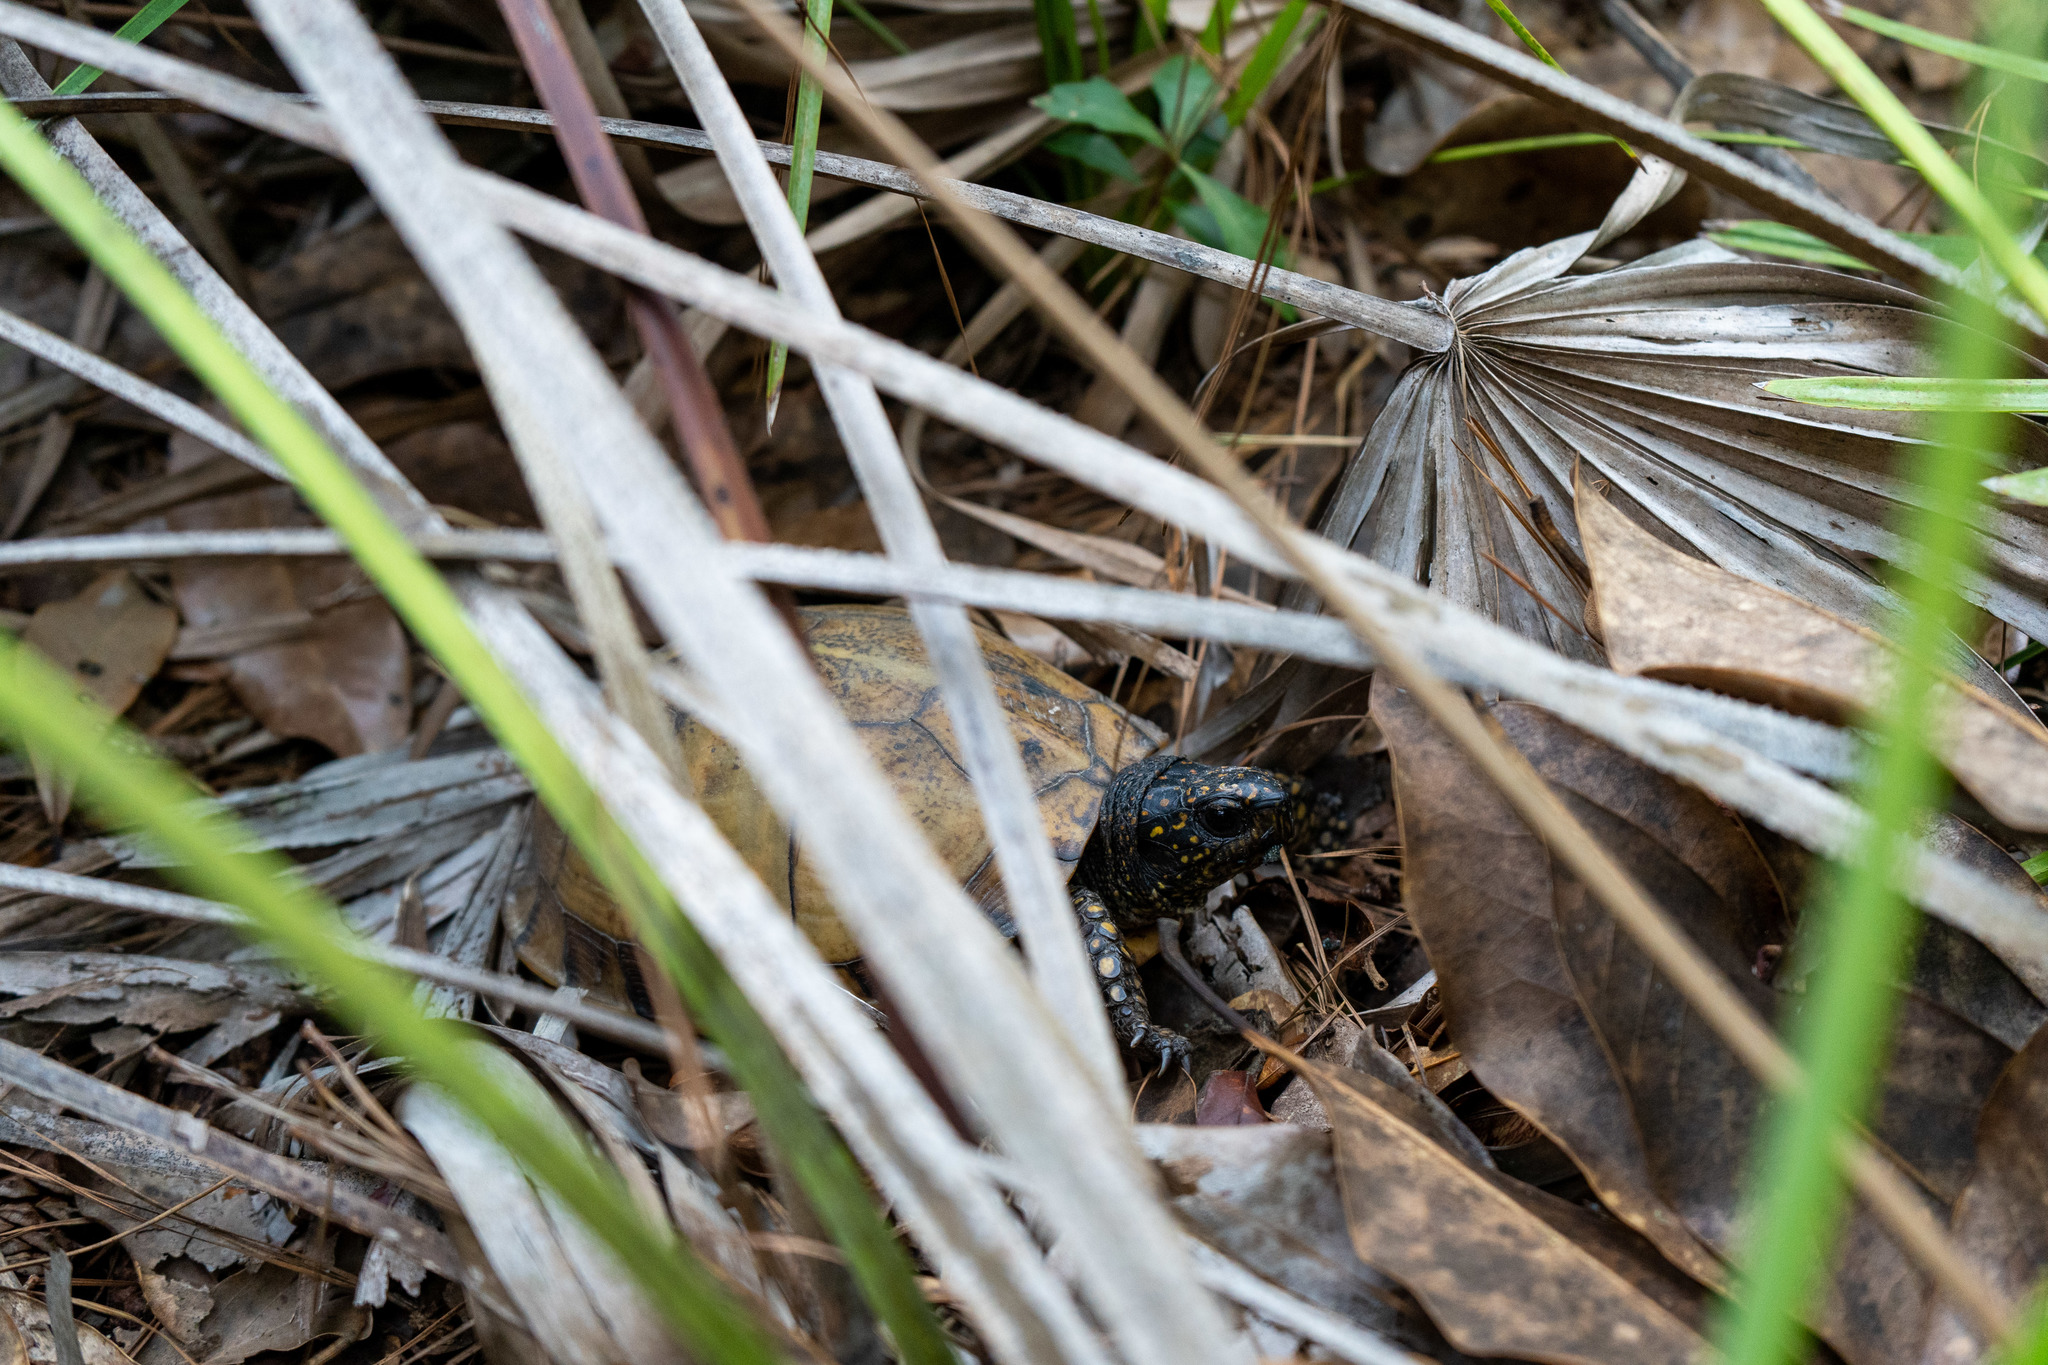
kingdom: Animalia
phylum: Chordata
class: Testudines
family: Emydidae
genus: Terrapene
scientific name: Terrapene carolina
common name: Common box turtle
